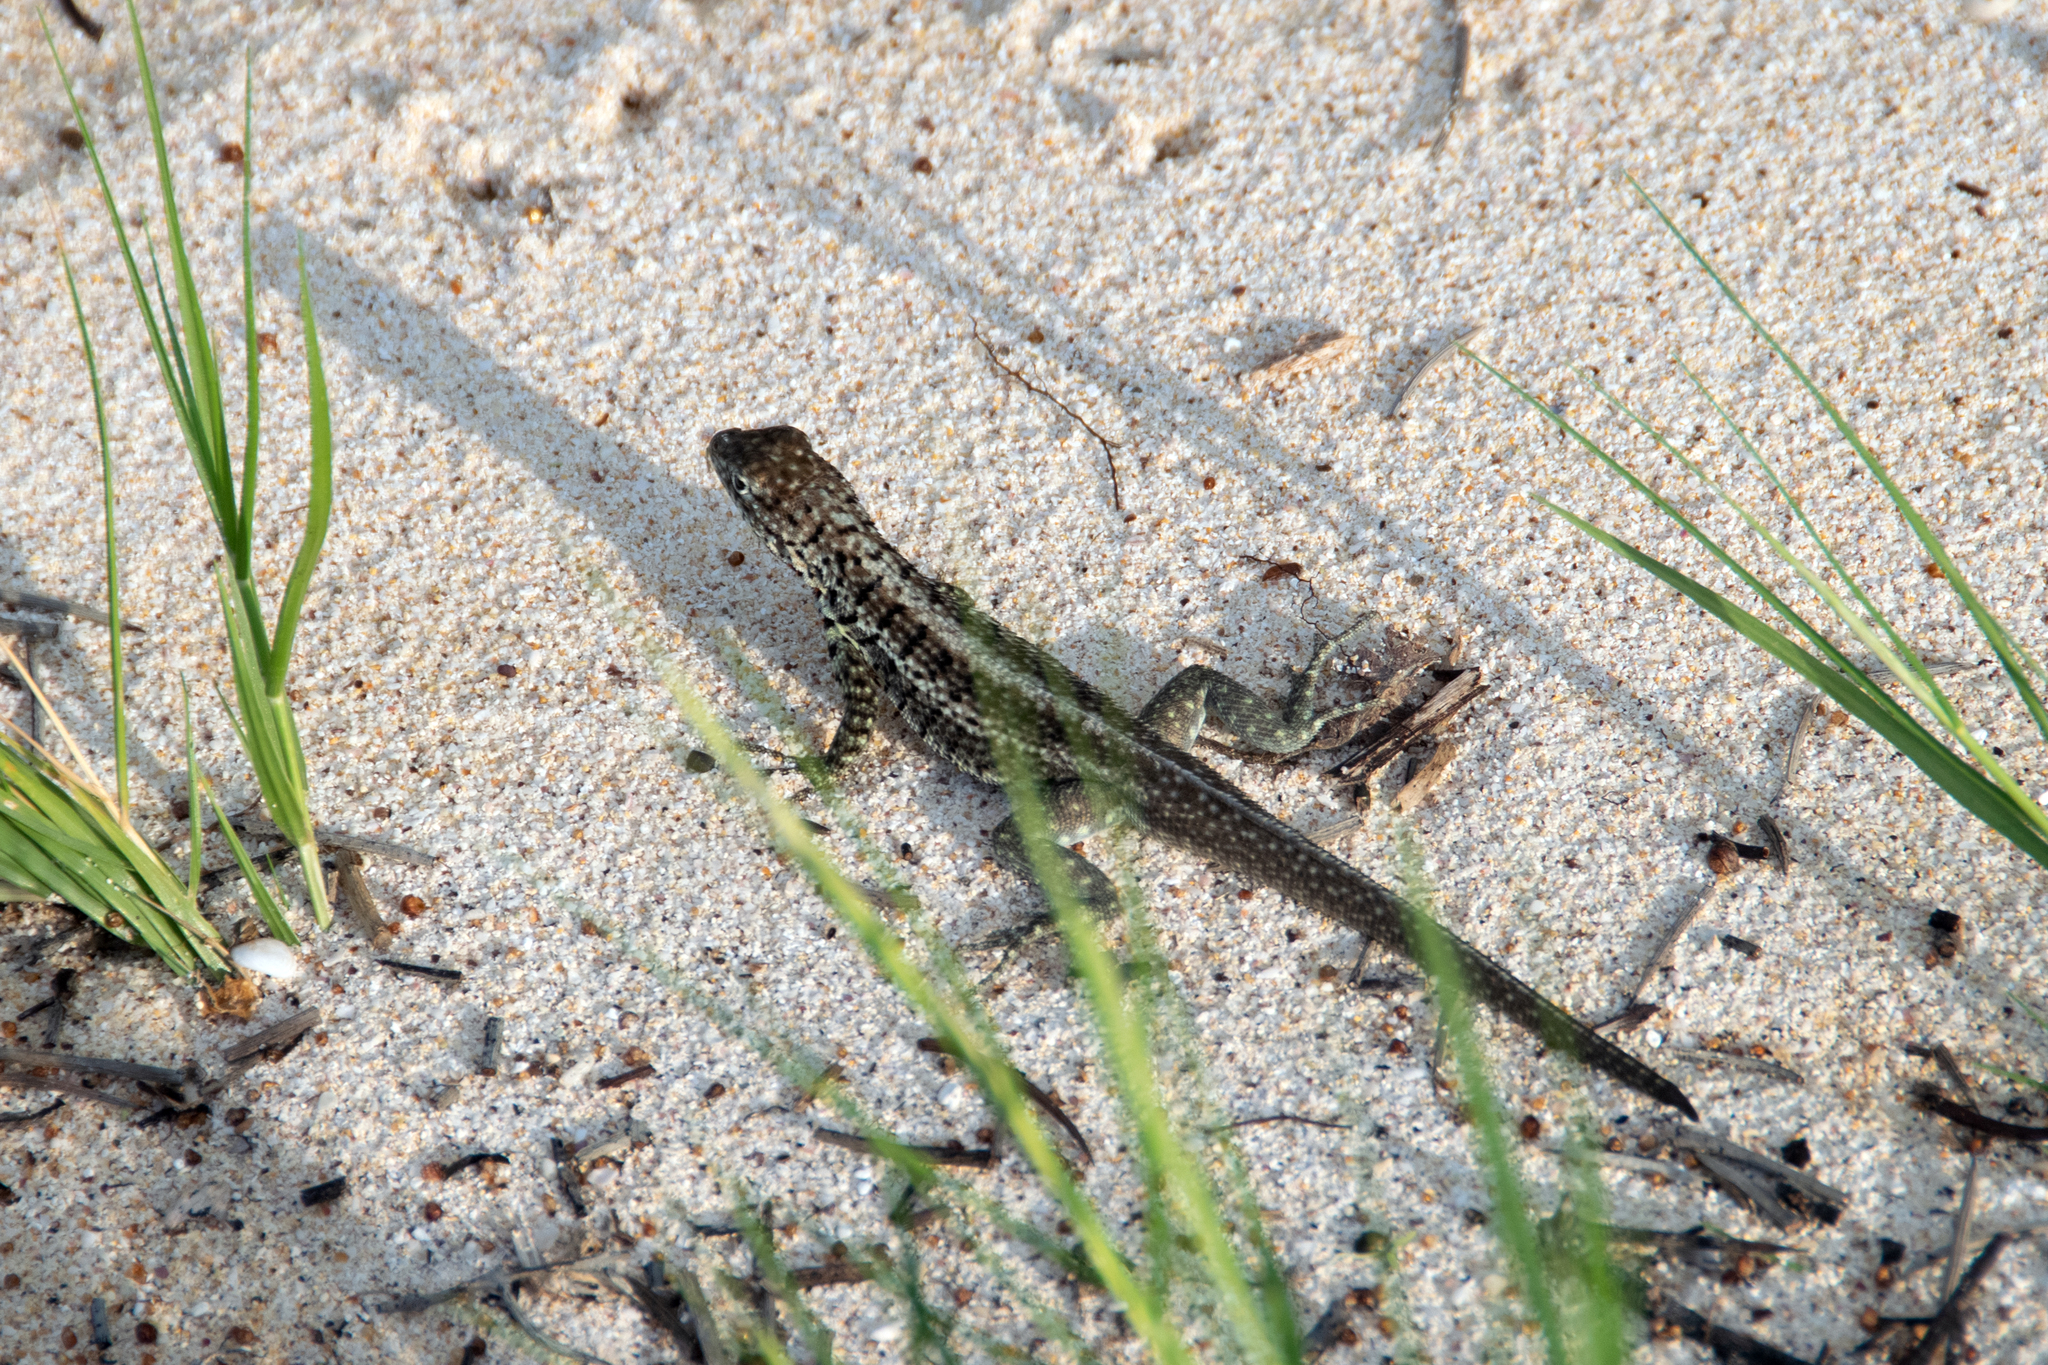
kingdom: Animalia
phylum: Chordata
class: Squamata
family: Tropiduridae
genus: Microlophus
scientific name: Microlophus indefatigabilis
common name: Galapagos lava lizard
